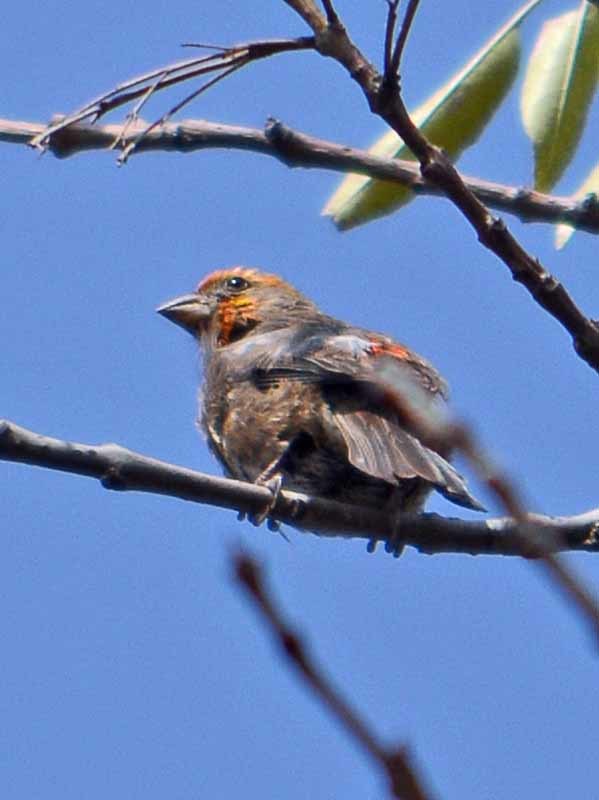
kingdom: Animalia
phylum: Chordata
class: Aves
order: Passeriformes
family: Fringillidae
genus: Haemorhous
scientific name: Haemorhous mexicanus
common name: House finch
